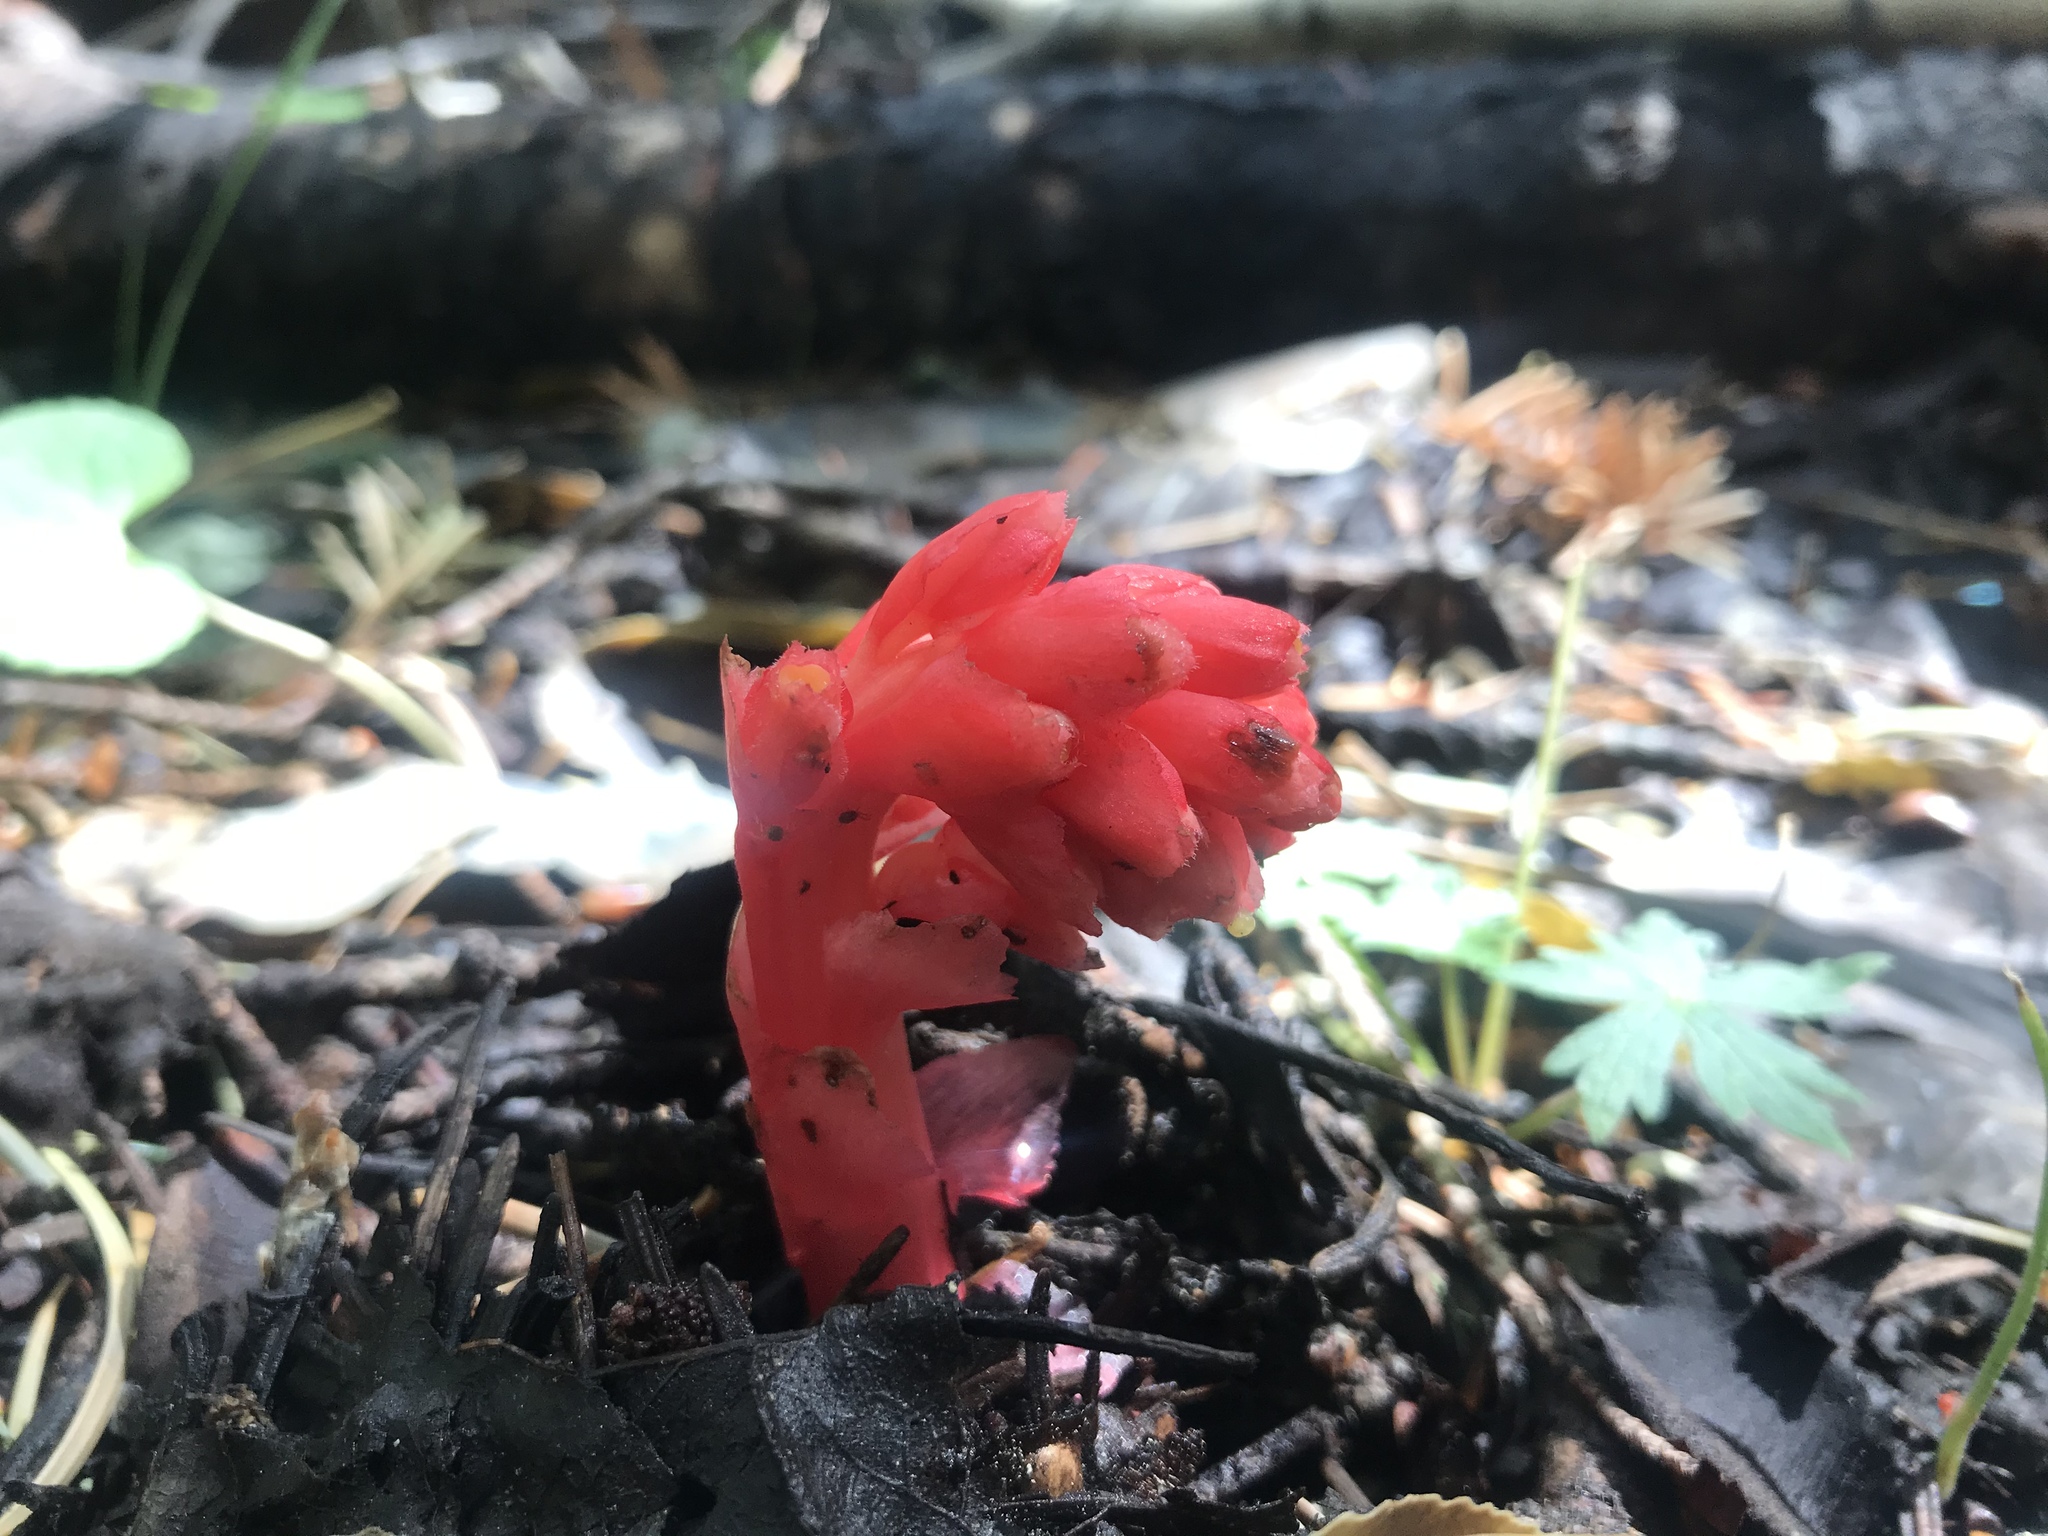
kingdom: Plantae
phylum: Tracheophyta
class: Magnoliopsida
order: Ericales
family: Ericaceae
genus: Hypopitys
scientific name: Hypopitys monotropa
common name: Yellow bird's-nest
